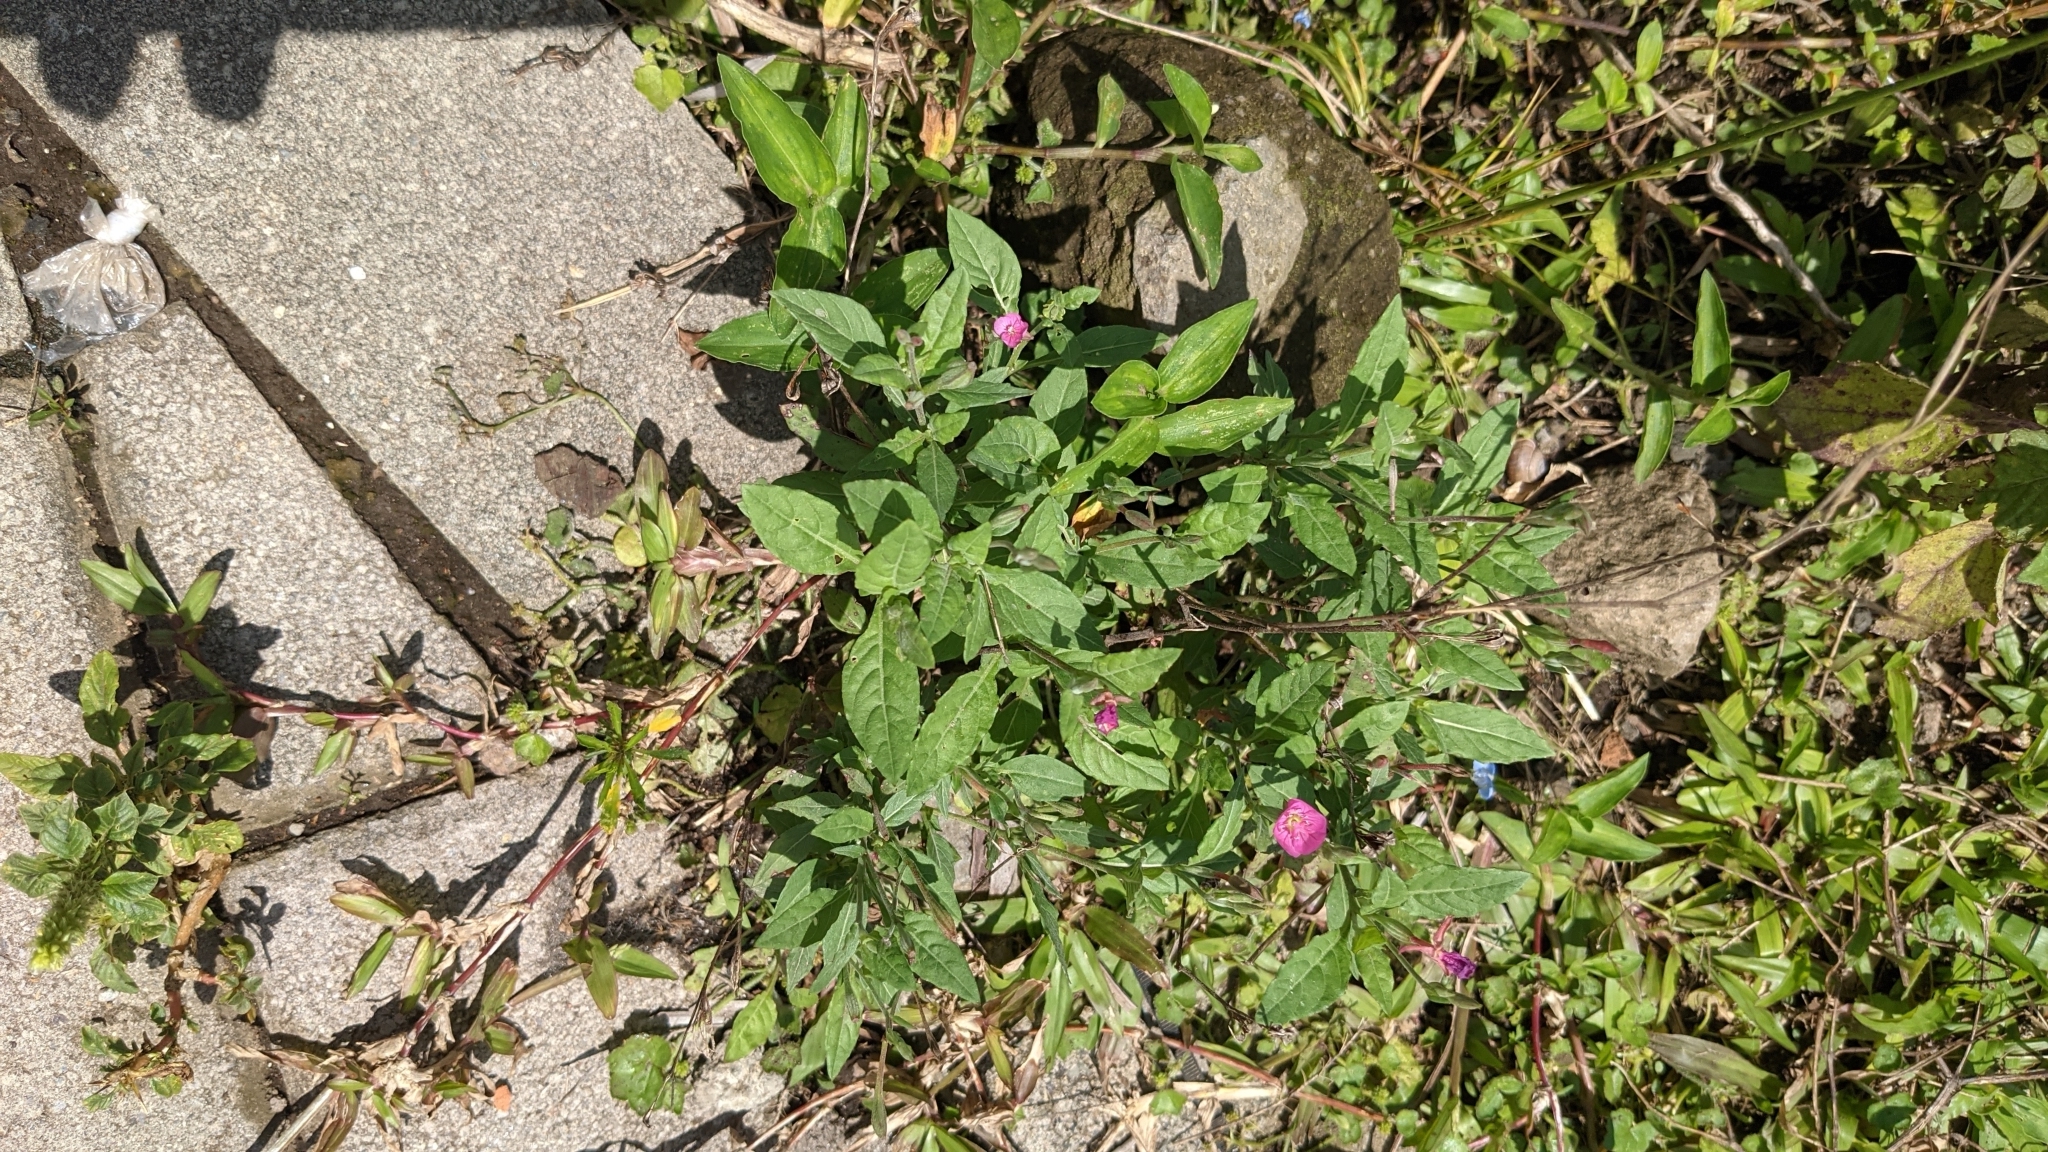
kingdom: Plantae
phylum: Tracheophyta
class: Magnoliopsida
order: Myrtales
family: Onagraceae
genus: Oenothera
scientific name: Oenothera rosea
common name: Rosy evening-primrose
